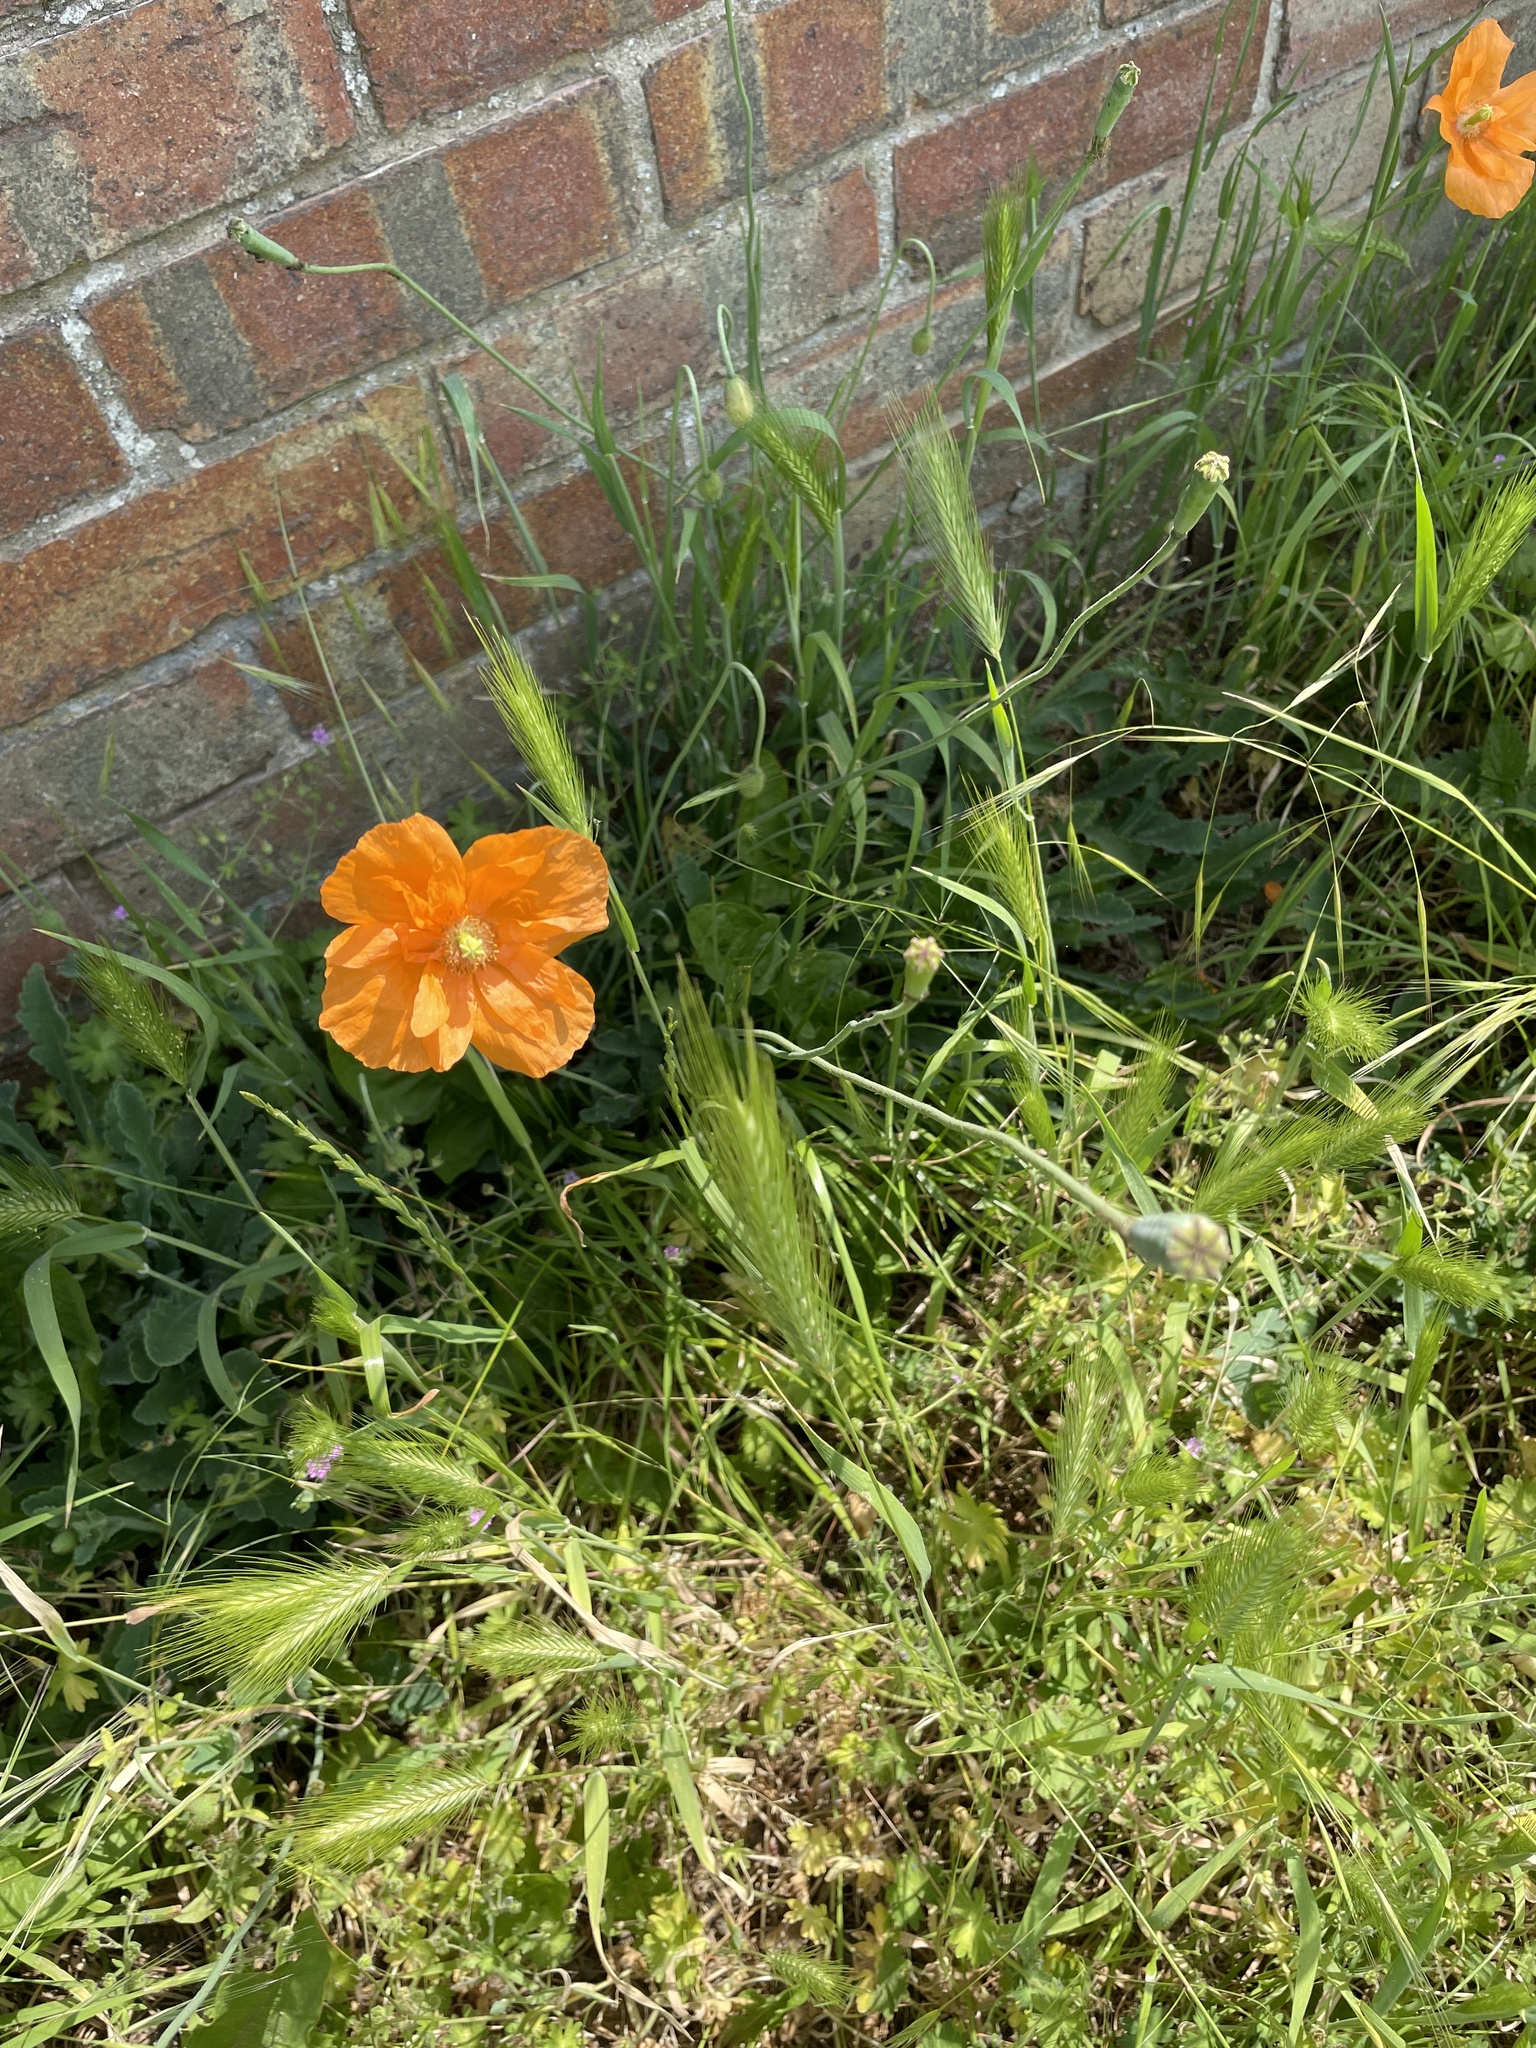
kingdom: Plantae
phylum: Tracheophyta
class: Magnoliopsida
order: Ranunculales
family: Papaveraceae
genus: Papaver
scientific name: Papaver atlanticum
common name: Atlas poppy
